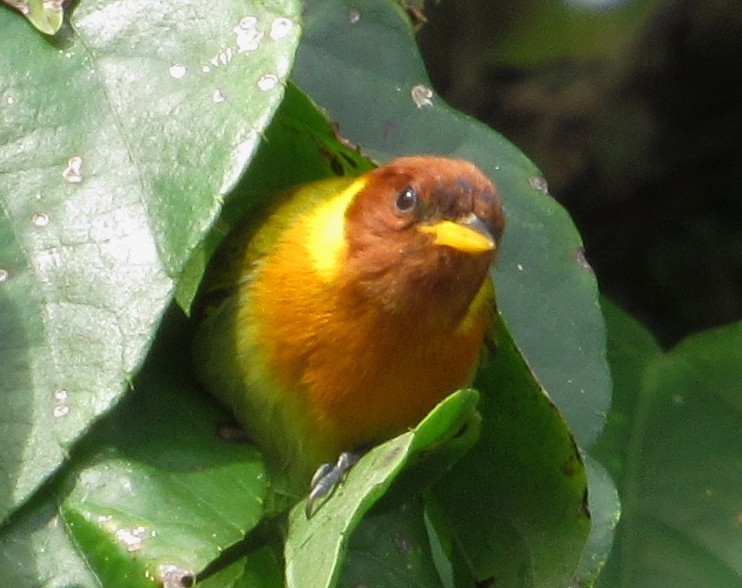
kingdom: Animalia
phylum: Chordata
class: Aves
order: Passeriformes
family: Thraupidae
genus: Hemithraupis
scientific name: Hemithraupis ruficapilla
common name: Rufous-headed tanager
